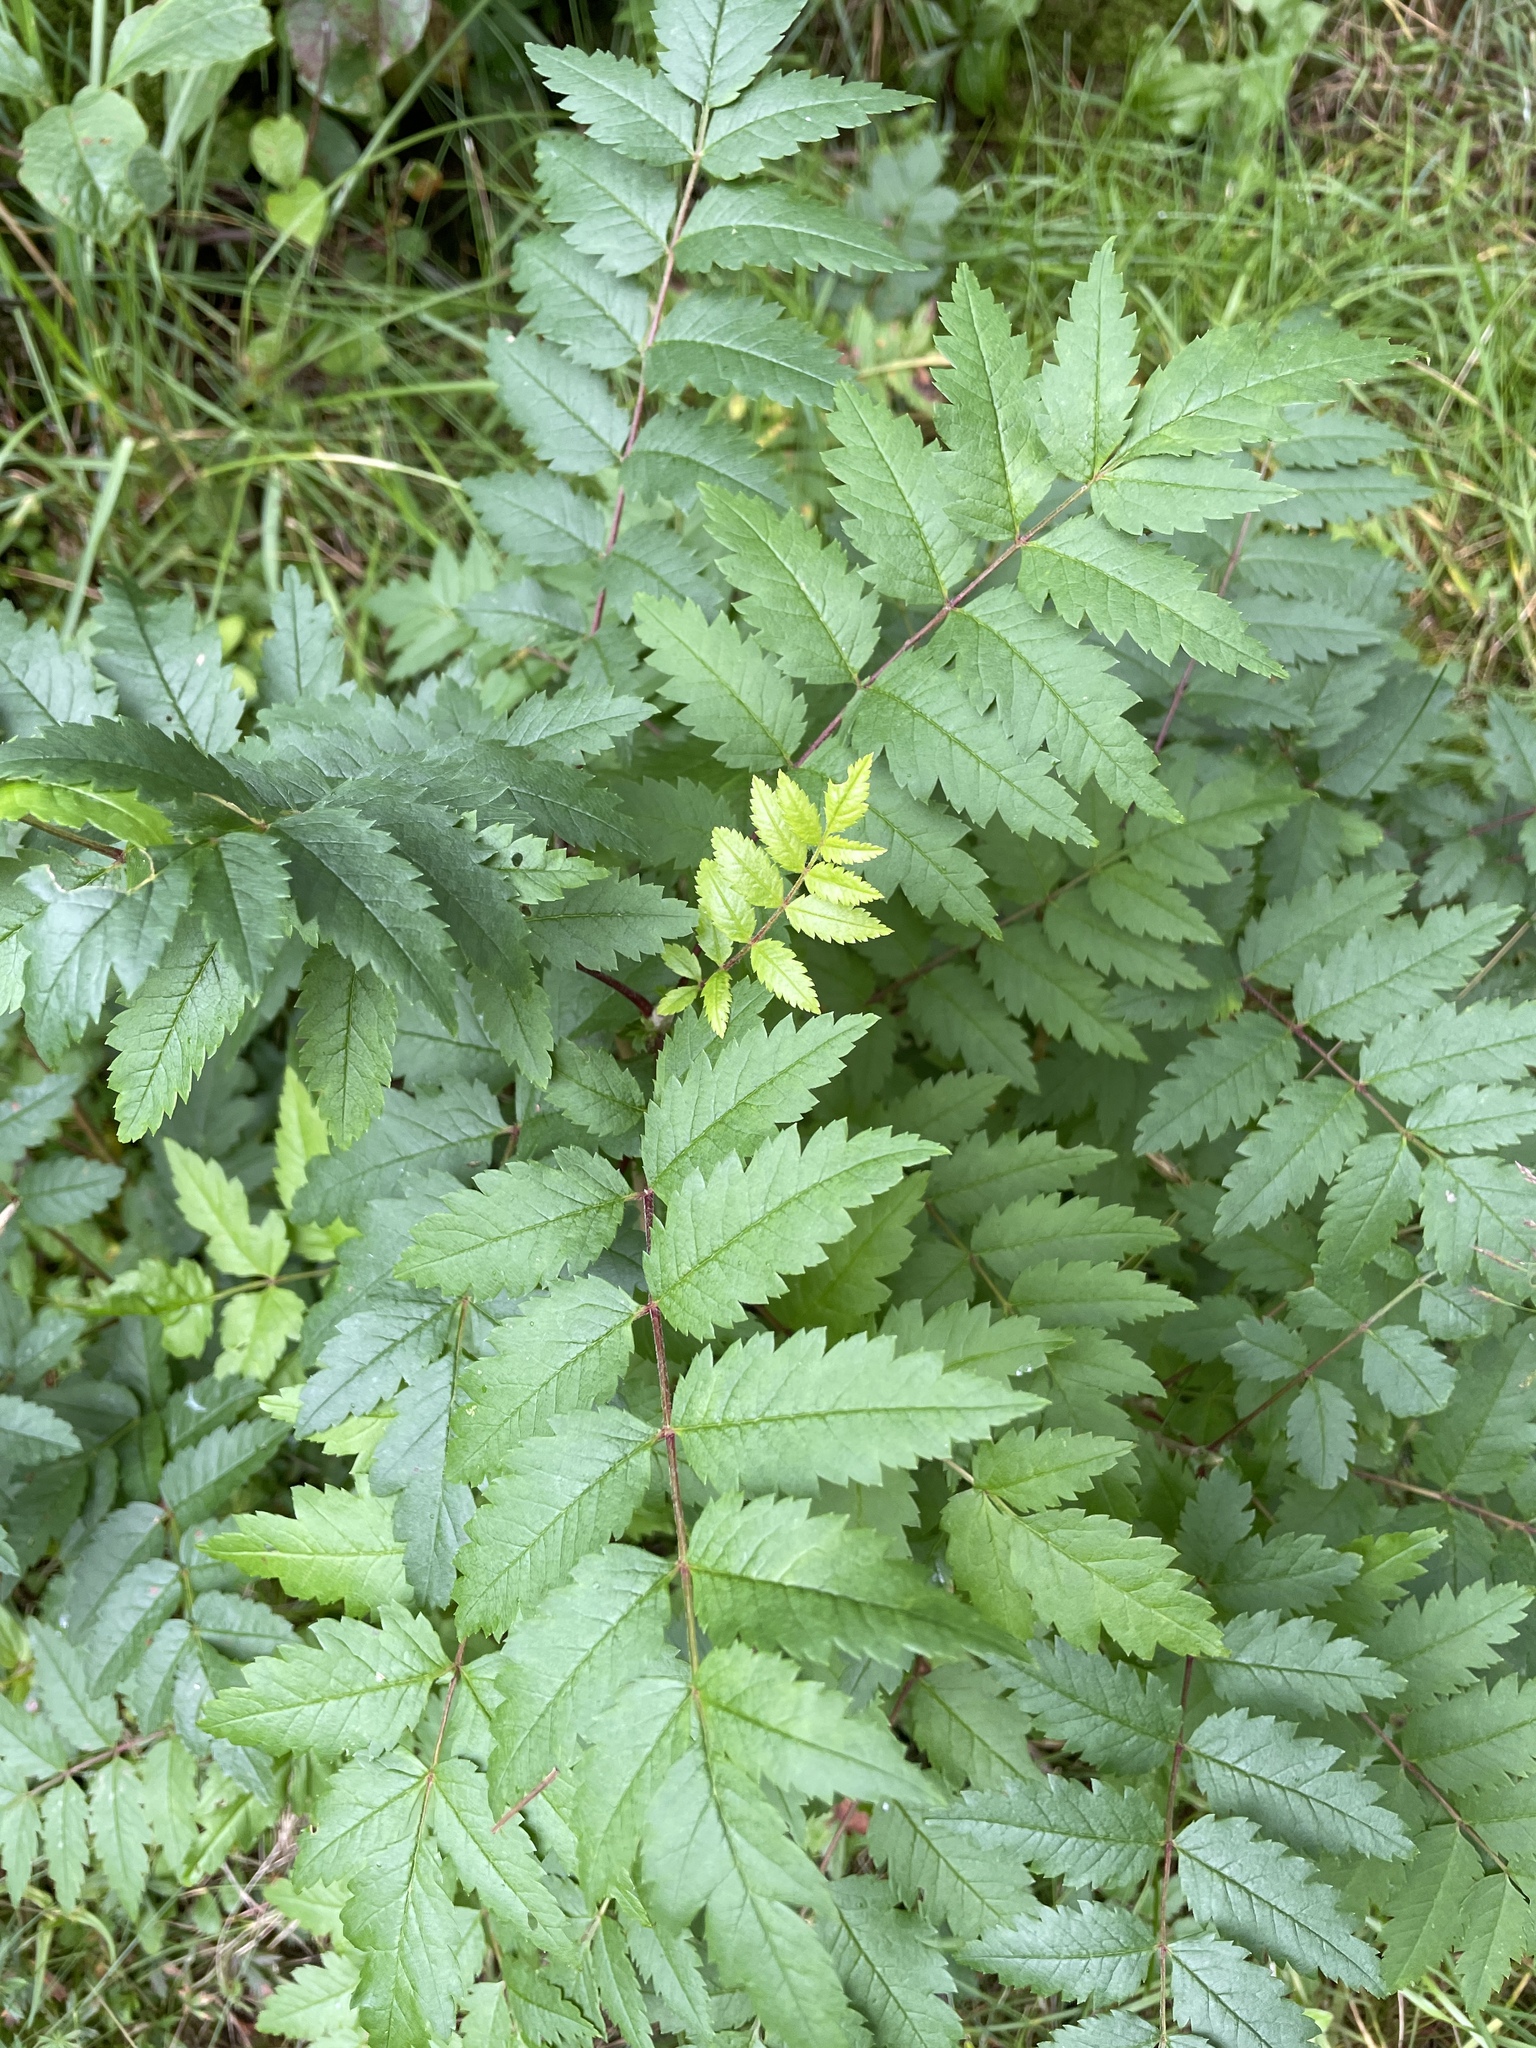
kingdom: Plantae
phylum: Tracheophyta
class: Magnoliopsida
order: Rosales
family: Rosaceae
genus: Sorbus
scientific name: Sorbus aucuparia
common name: Rowan
